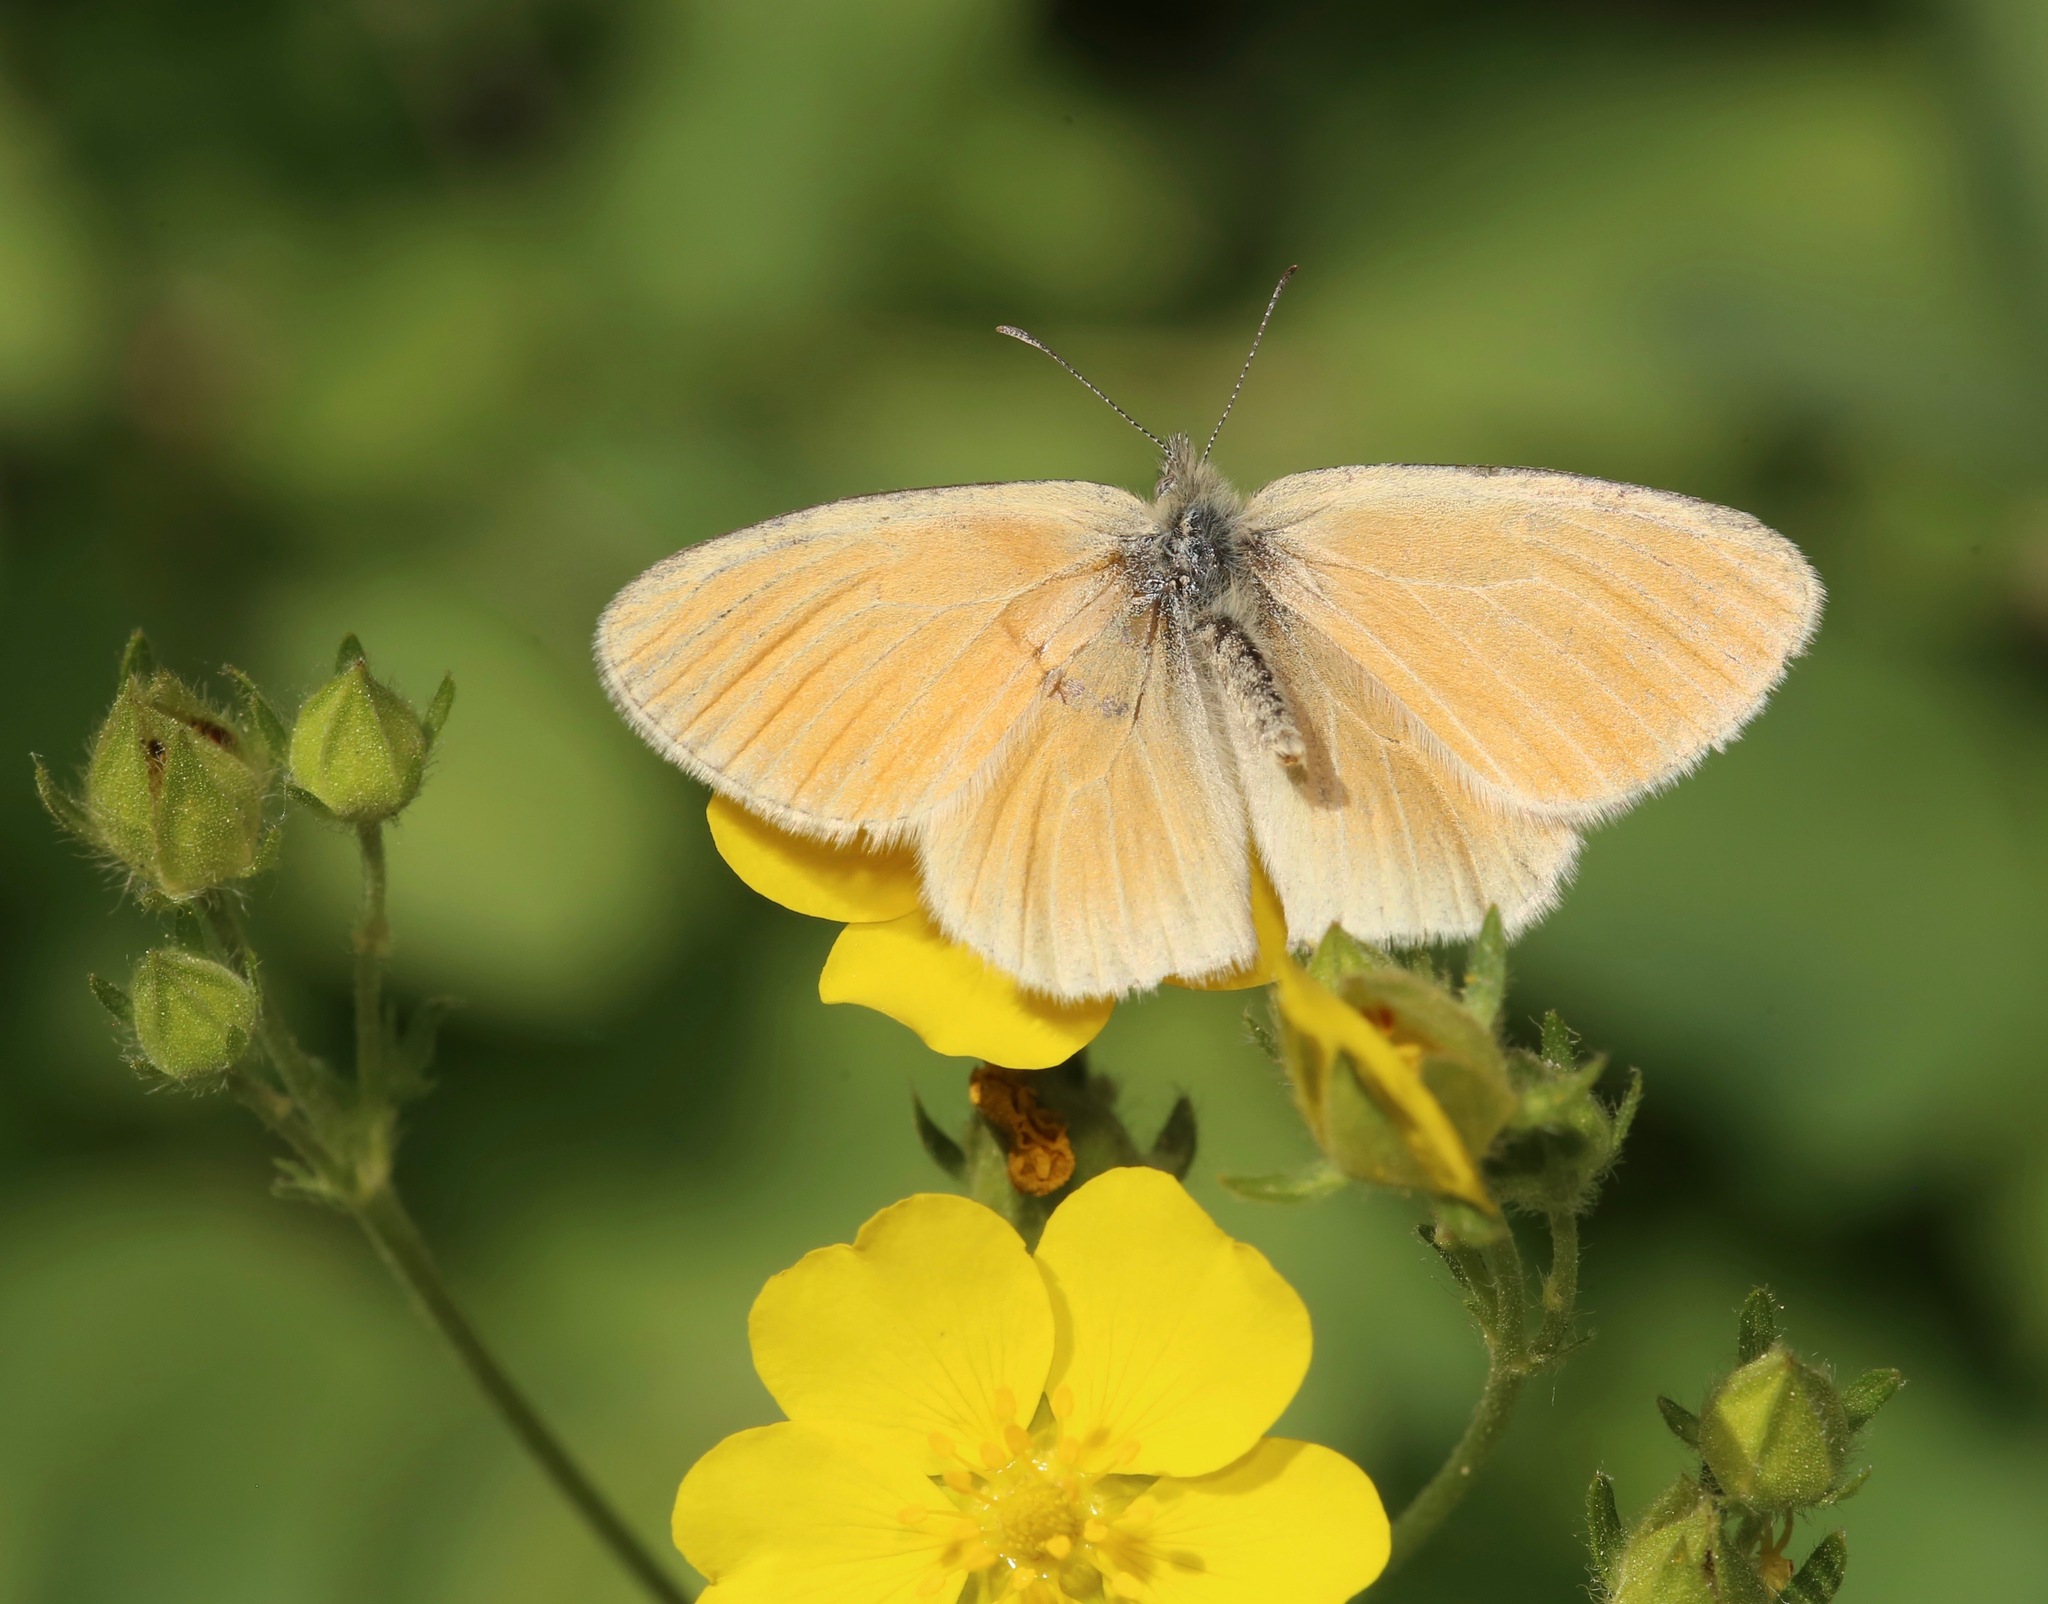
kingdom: Animalia
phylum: Arthropoda
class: Insecta
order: Lepidoptera
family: Nymphalidae
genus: Coenonympha
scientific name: Coenonympha california
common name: Common ringlet
